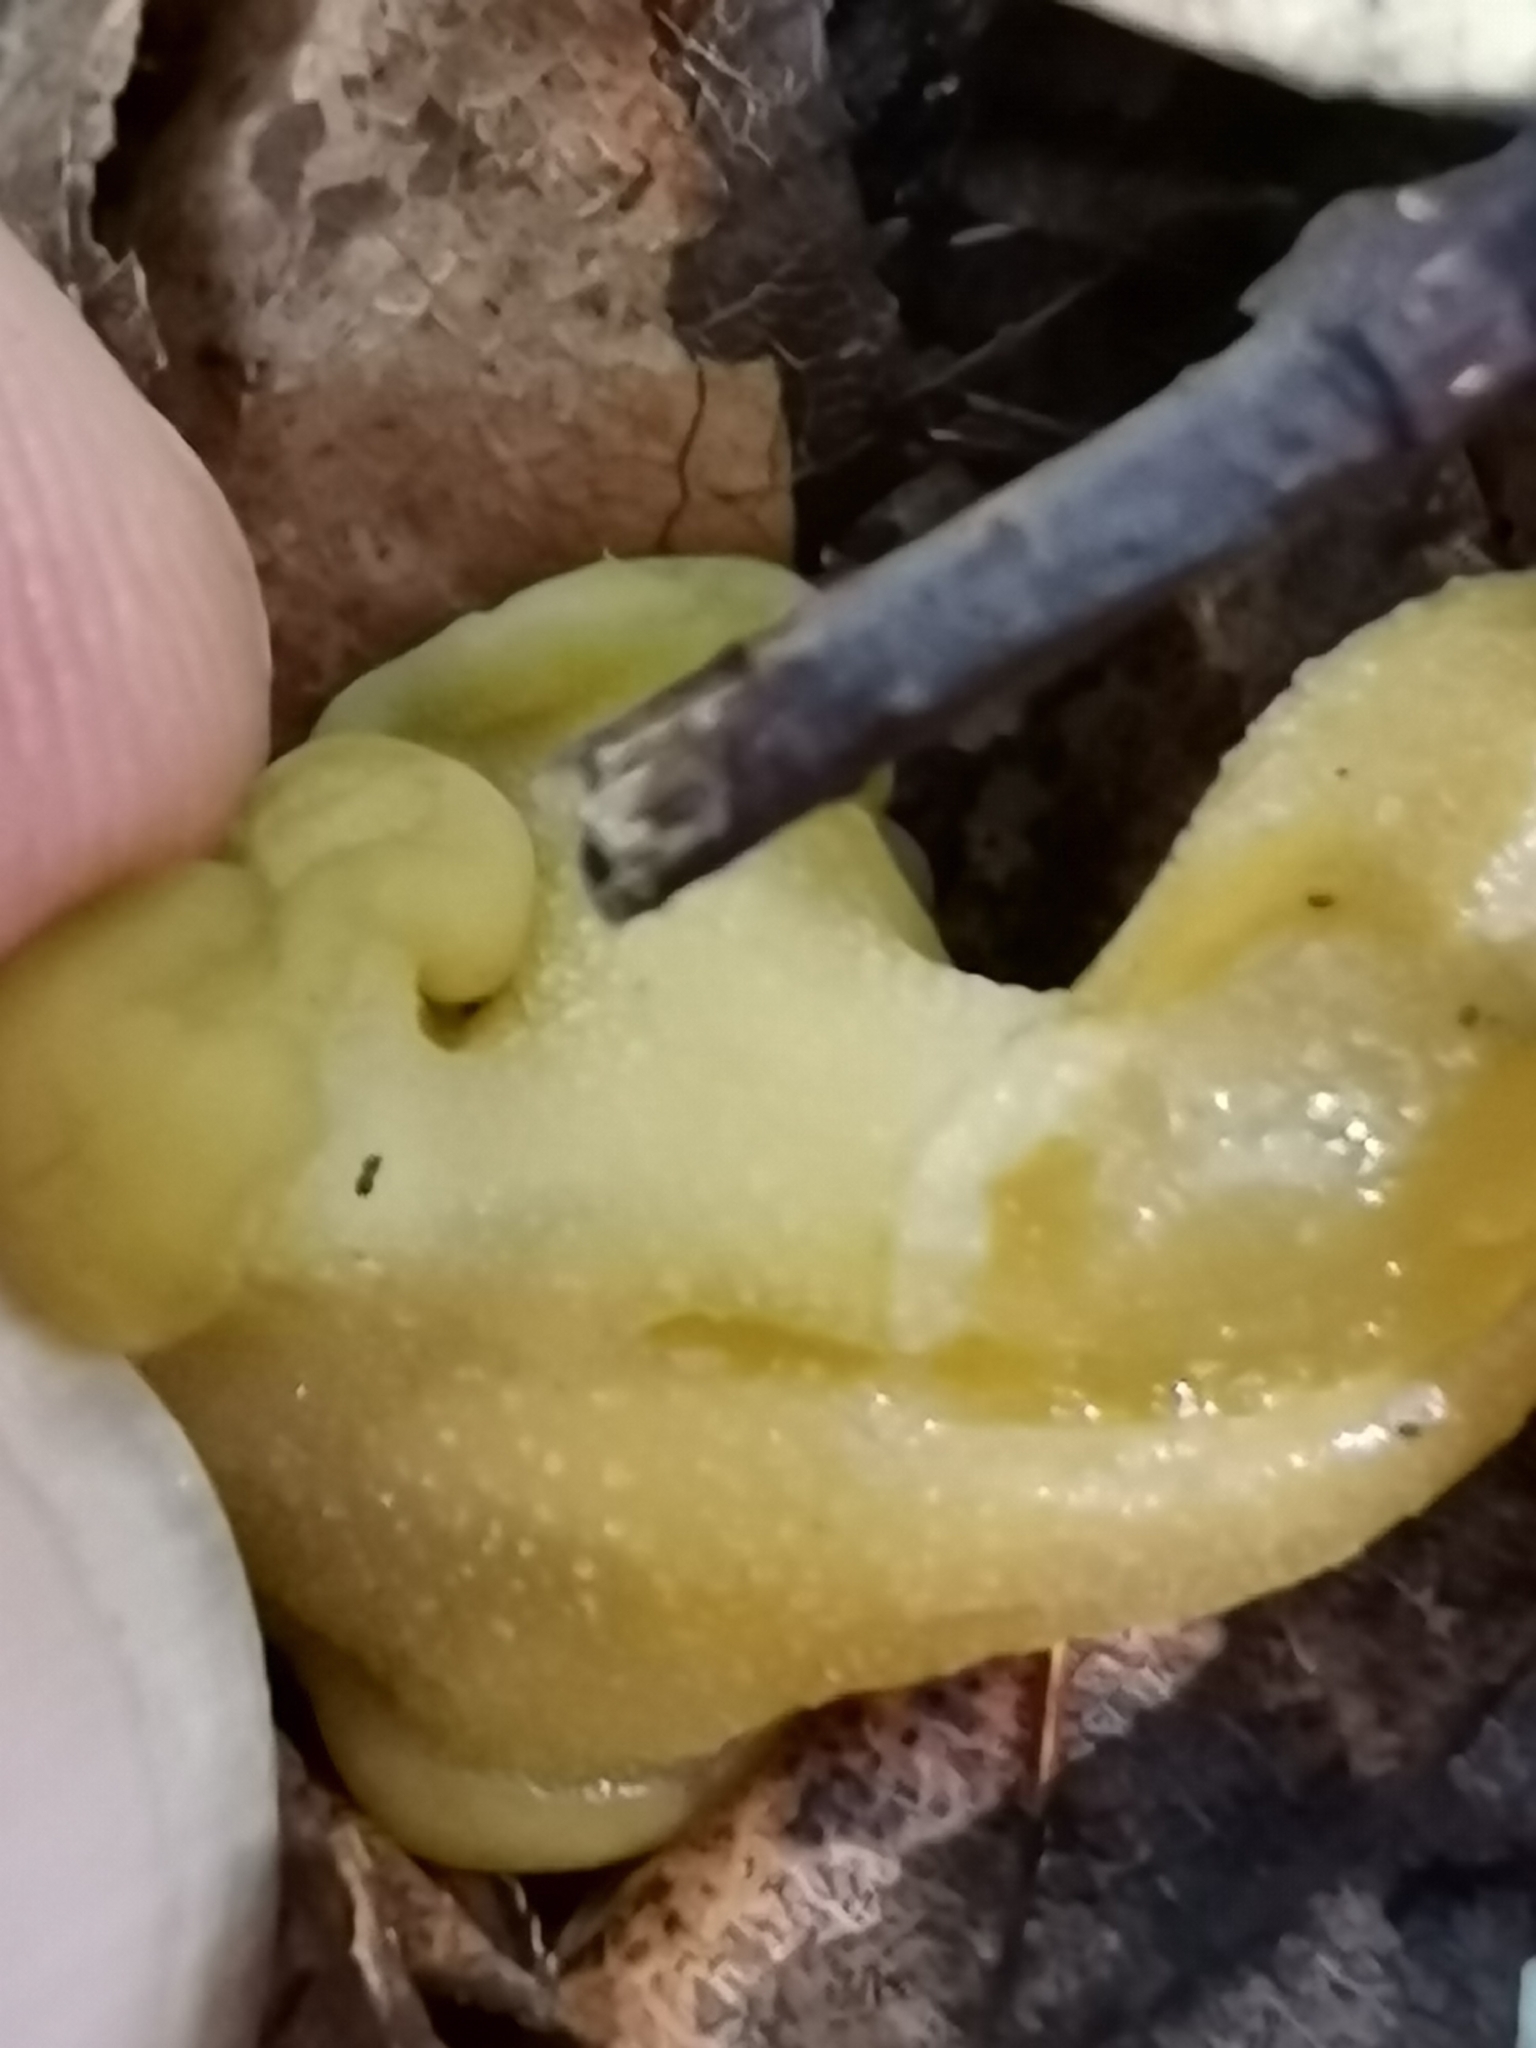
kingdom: Fungi
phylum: Ascomycota
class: Leotiomycetes
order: Leotiales
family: Leotiaceae
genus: Leotia
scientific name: Leotia lubrica
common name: Jellybaby
